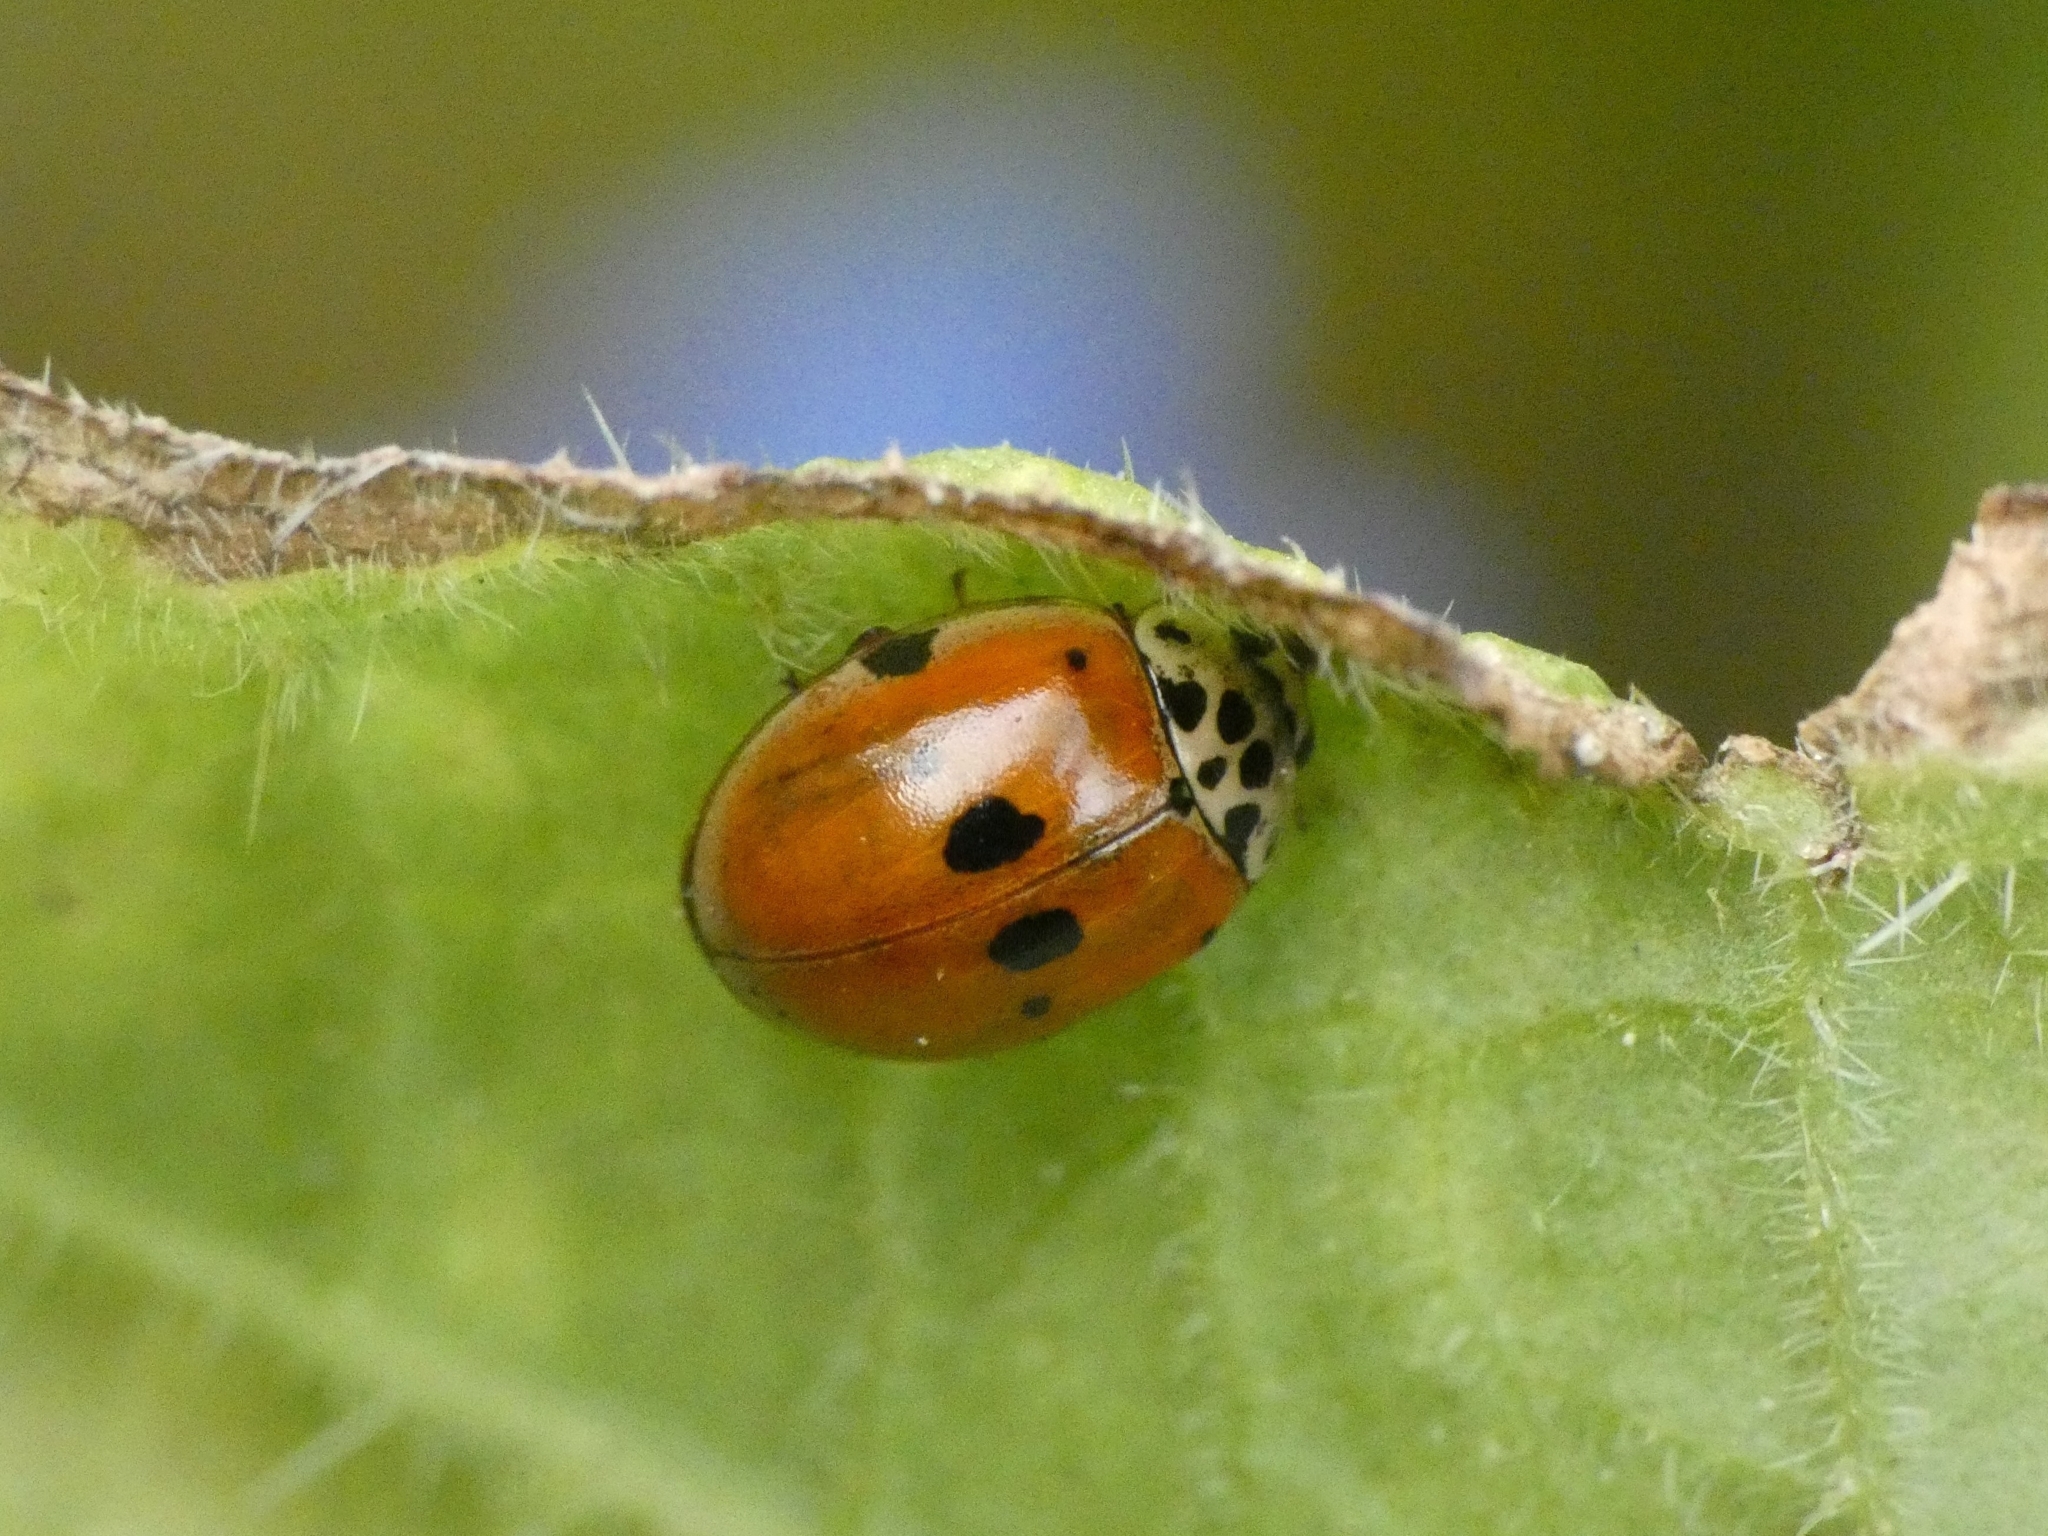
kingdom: Animalia
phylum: Arthropoda
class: Insecta
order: Coleoptera
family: Coccinellidae
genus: Adalia
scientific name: Adalia decempunctata
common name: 10-spot ladybird
